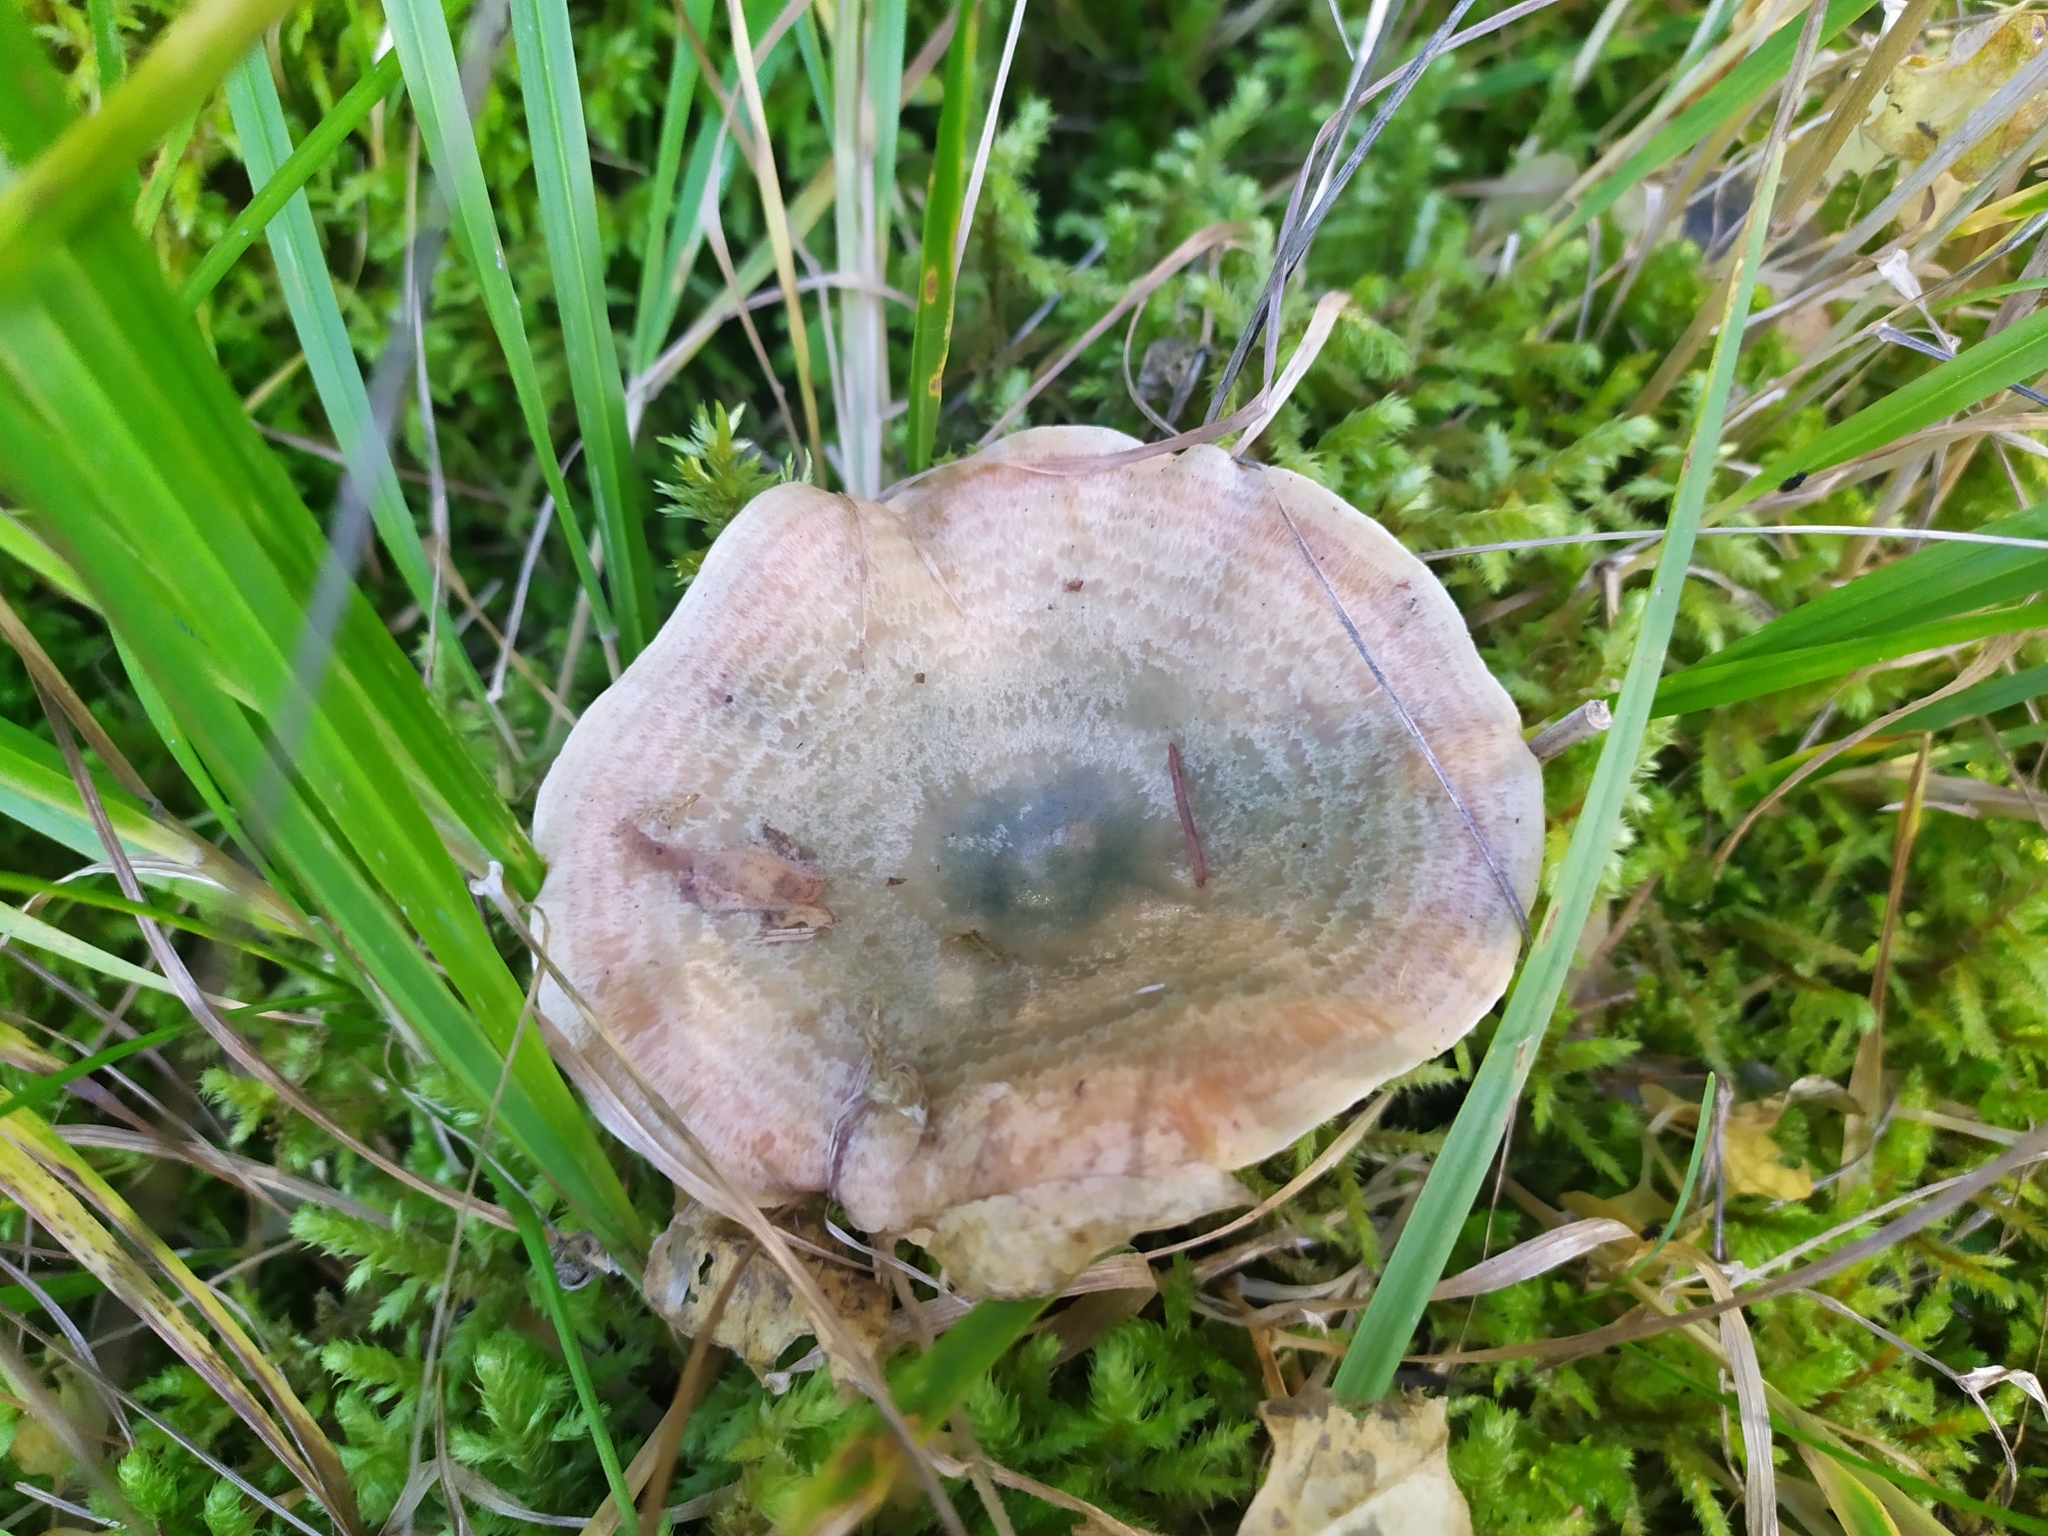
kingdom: Fungi
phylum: Basidiomycota
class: Agaricomycetes
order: Russulales
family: Russulaceae
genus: Lactarius
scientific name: Lactarius deterrimus
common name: False saffron milkcap
